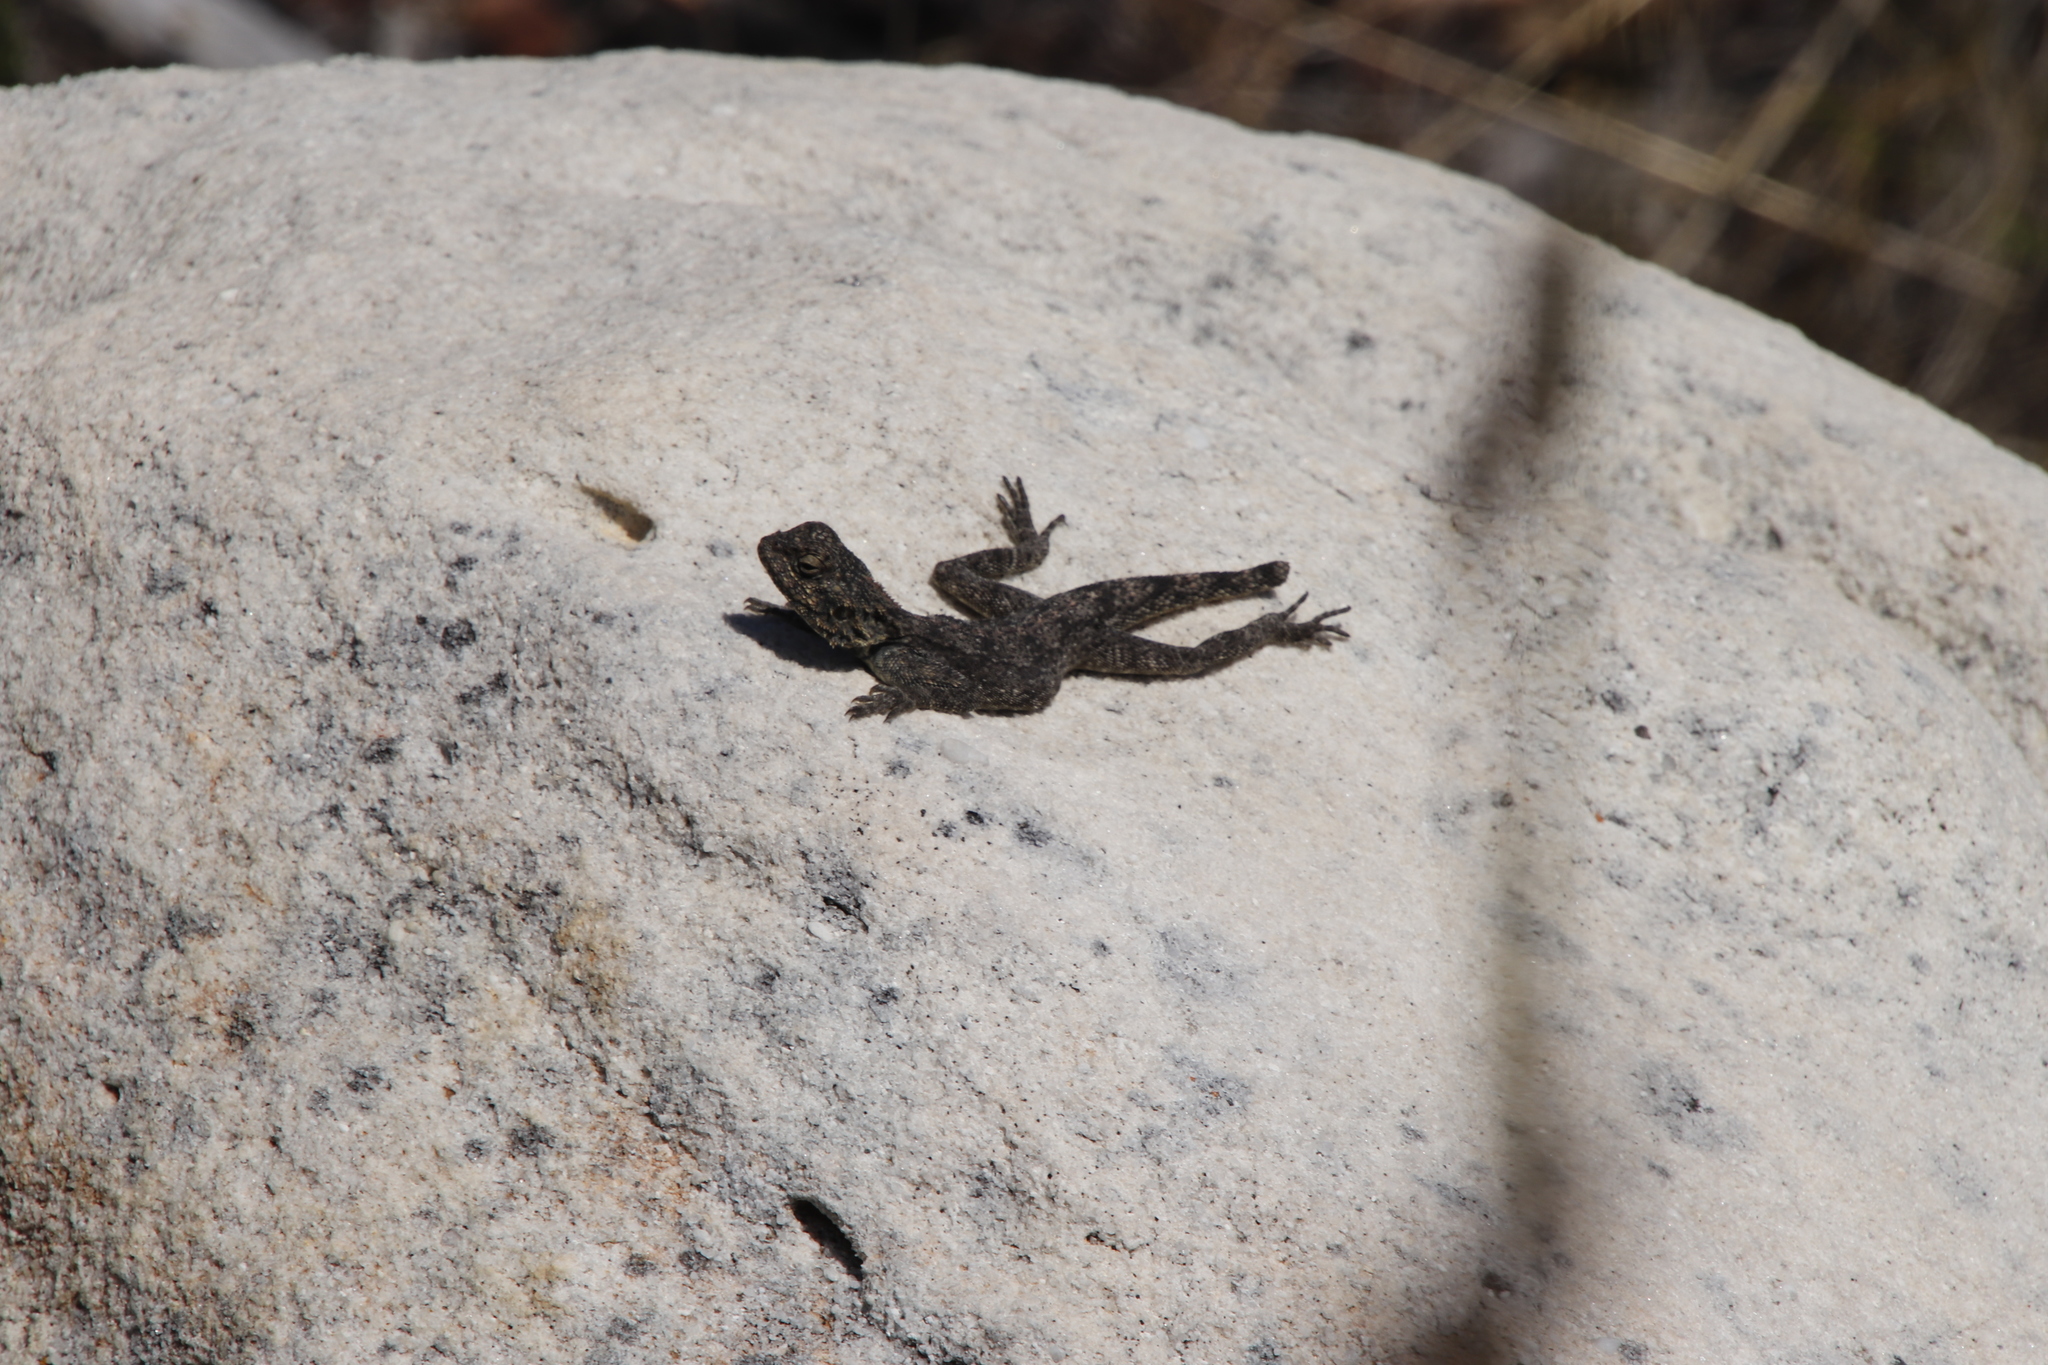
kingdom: Animalia
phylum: Chordata
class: Squamata
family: Agamidae
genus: Agama
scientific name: Agama atra
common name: Southern african rock agama
